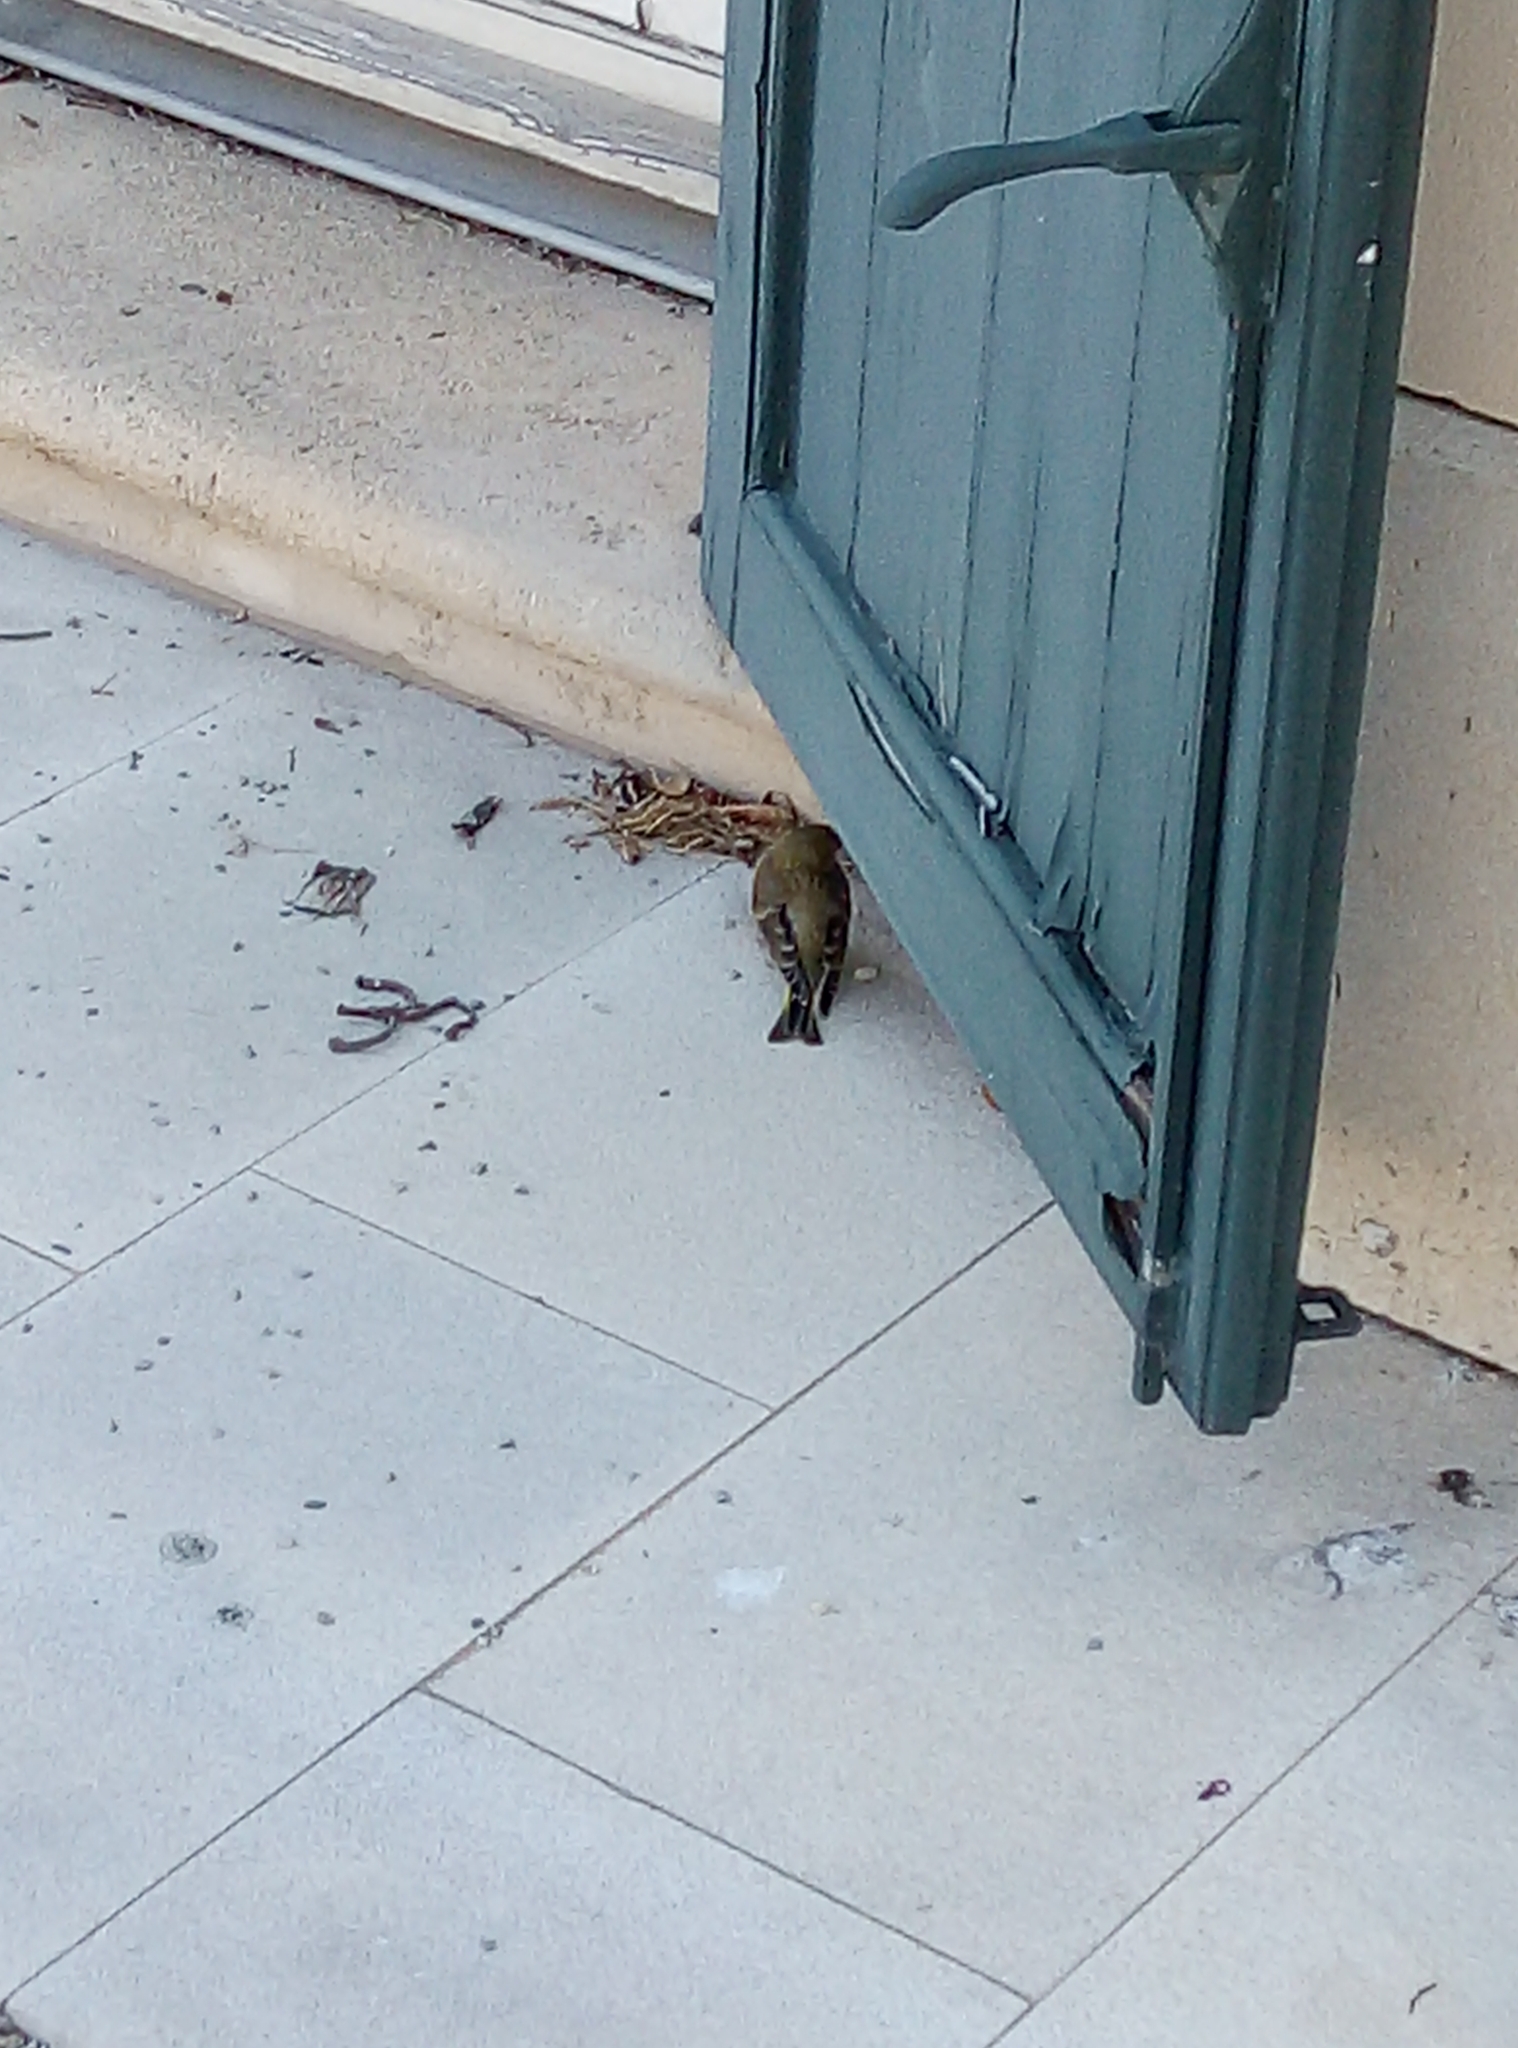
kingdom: Plantae
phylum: Tracheophyta
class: Liliopsida
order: Poales
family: Poaceae
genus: Chloris
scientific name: Chloris chloris
